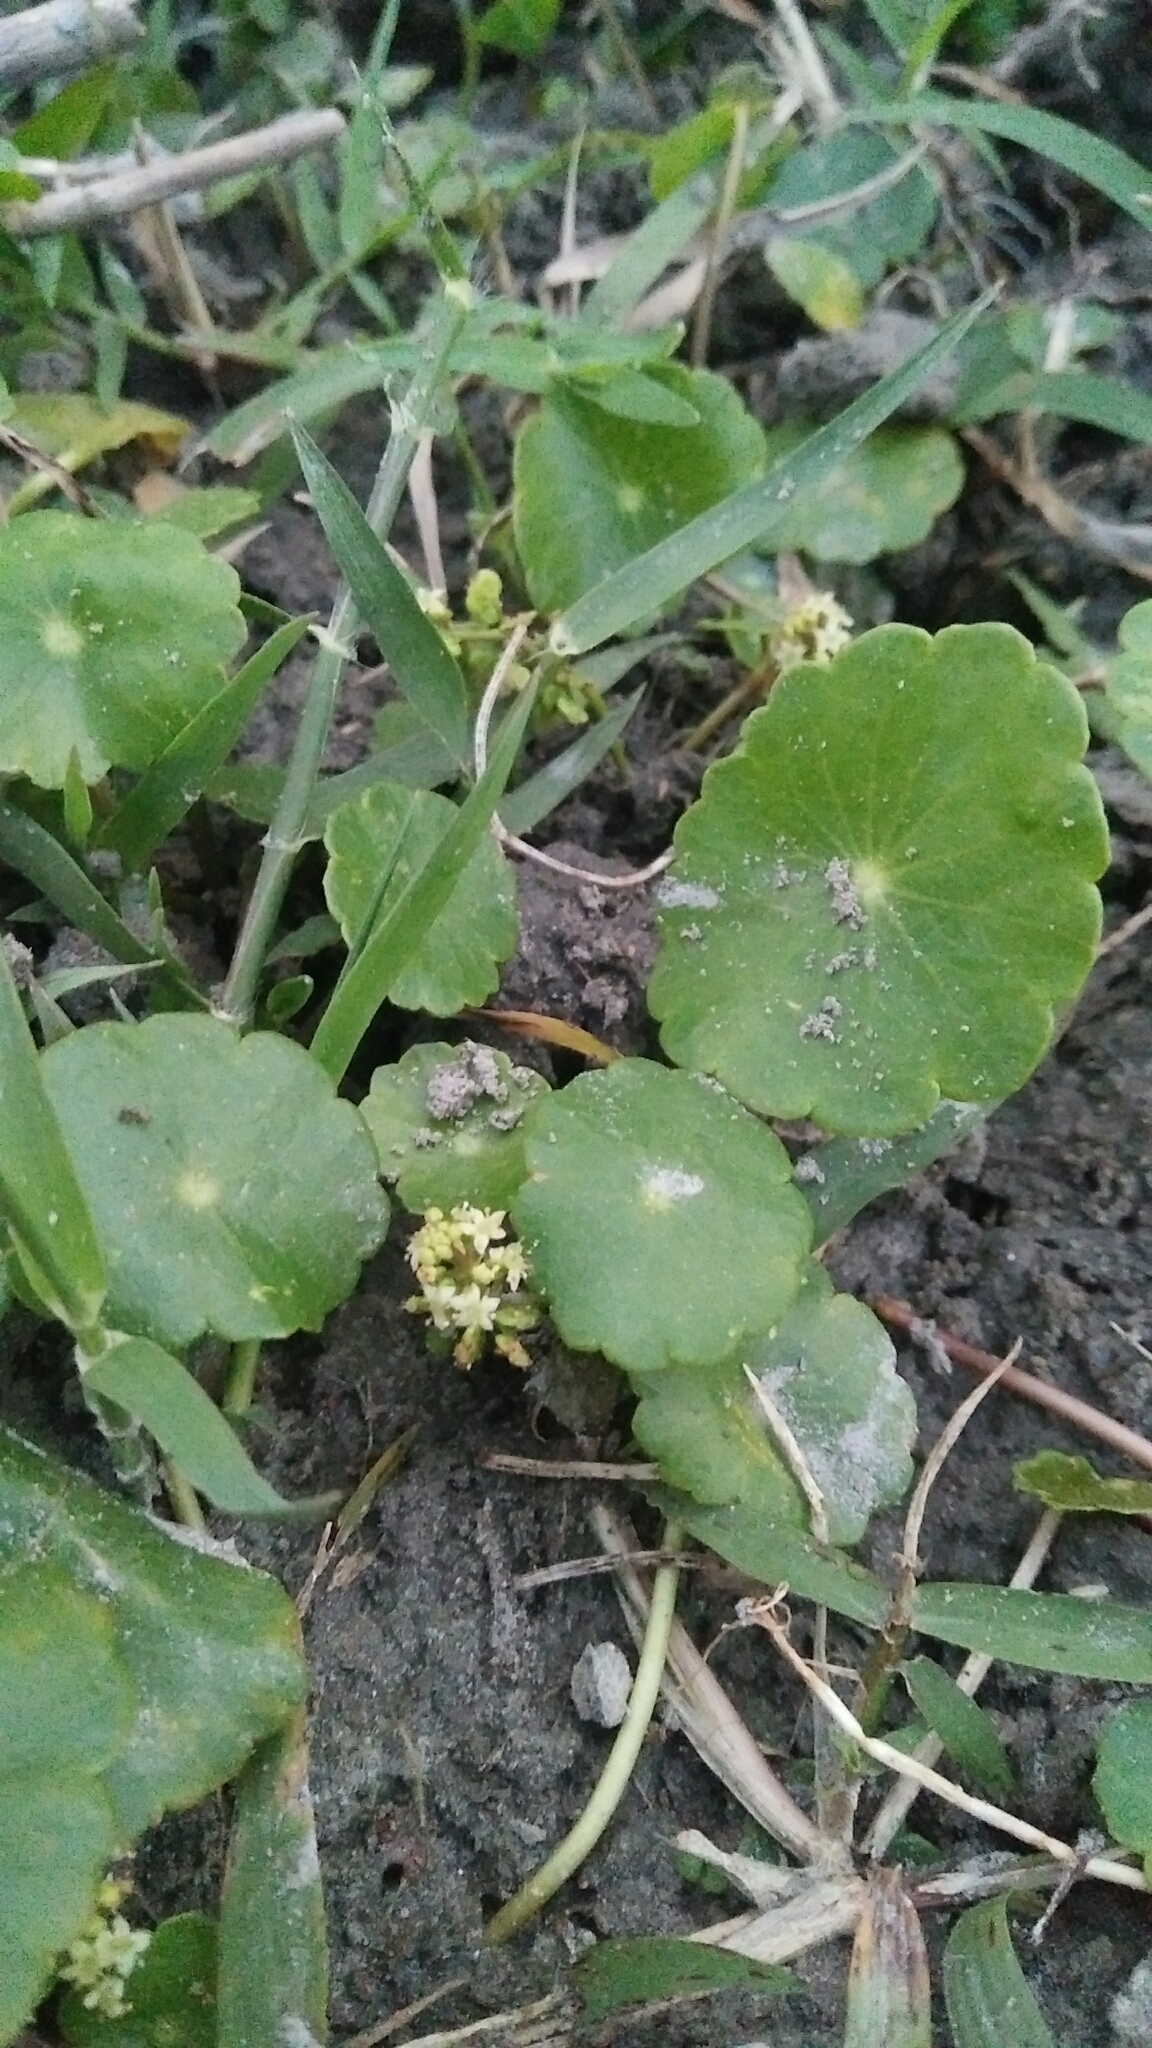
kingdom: Plantae
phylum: Tracheophyta
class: Magnoliopsida
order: Apiales
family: Araliaceae
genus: Hydrocotyle
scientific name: Hydrocotyle verticillata
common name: Whorled marshpennywort
